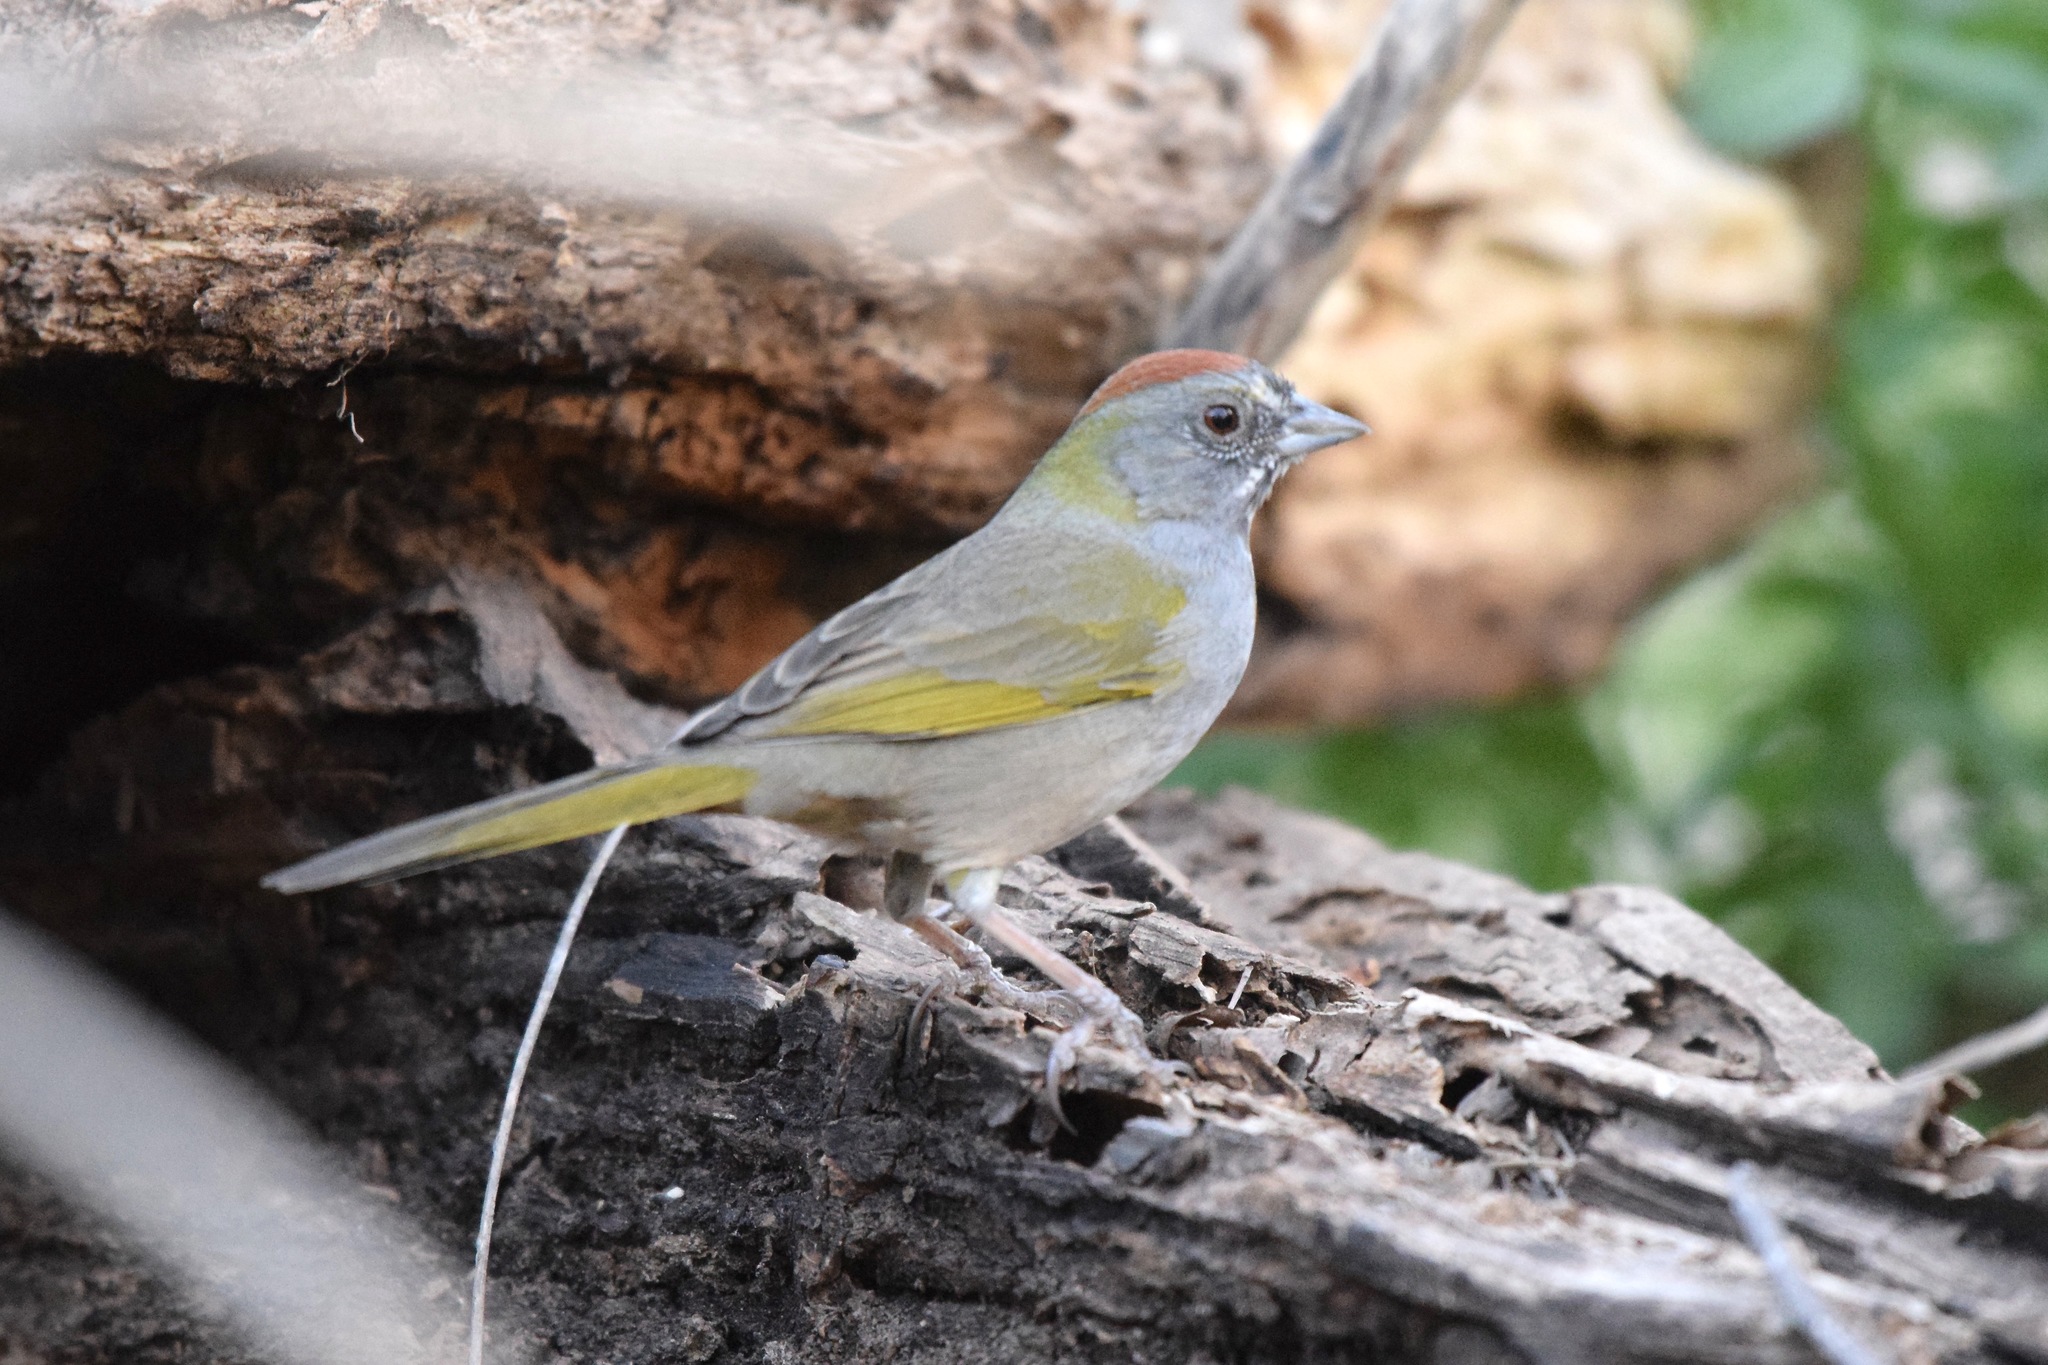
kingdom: Animalia
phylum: Chordata
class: Aves
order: Passeriformes
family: Passerellidae
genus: Pipilo
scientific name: Pipilo chlorurus
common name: Green-tailed towhee
